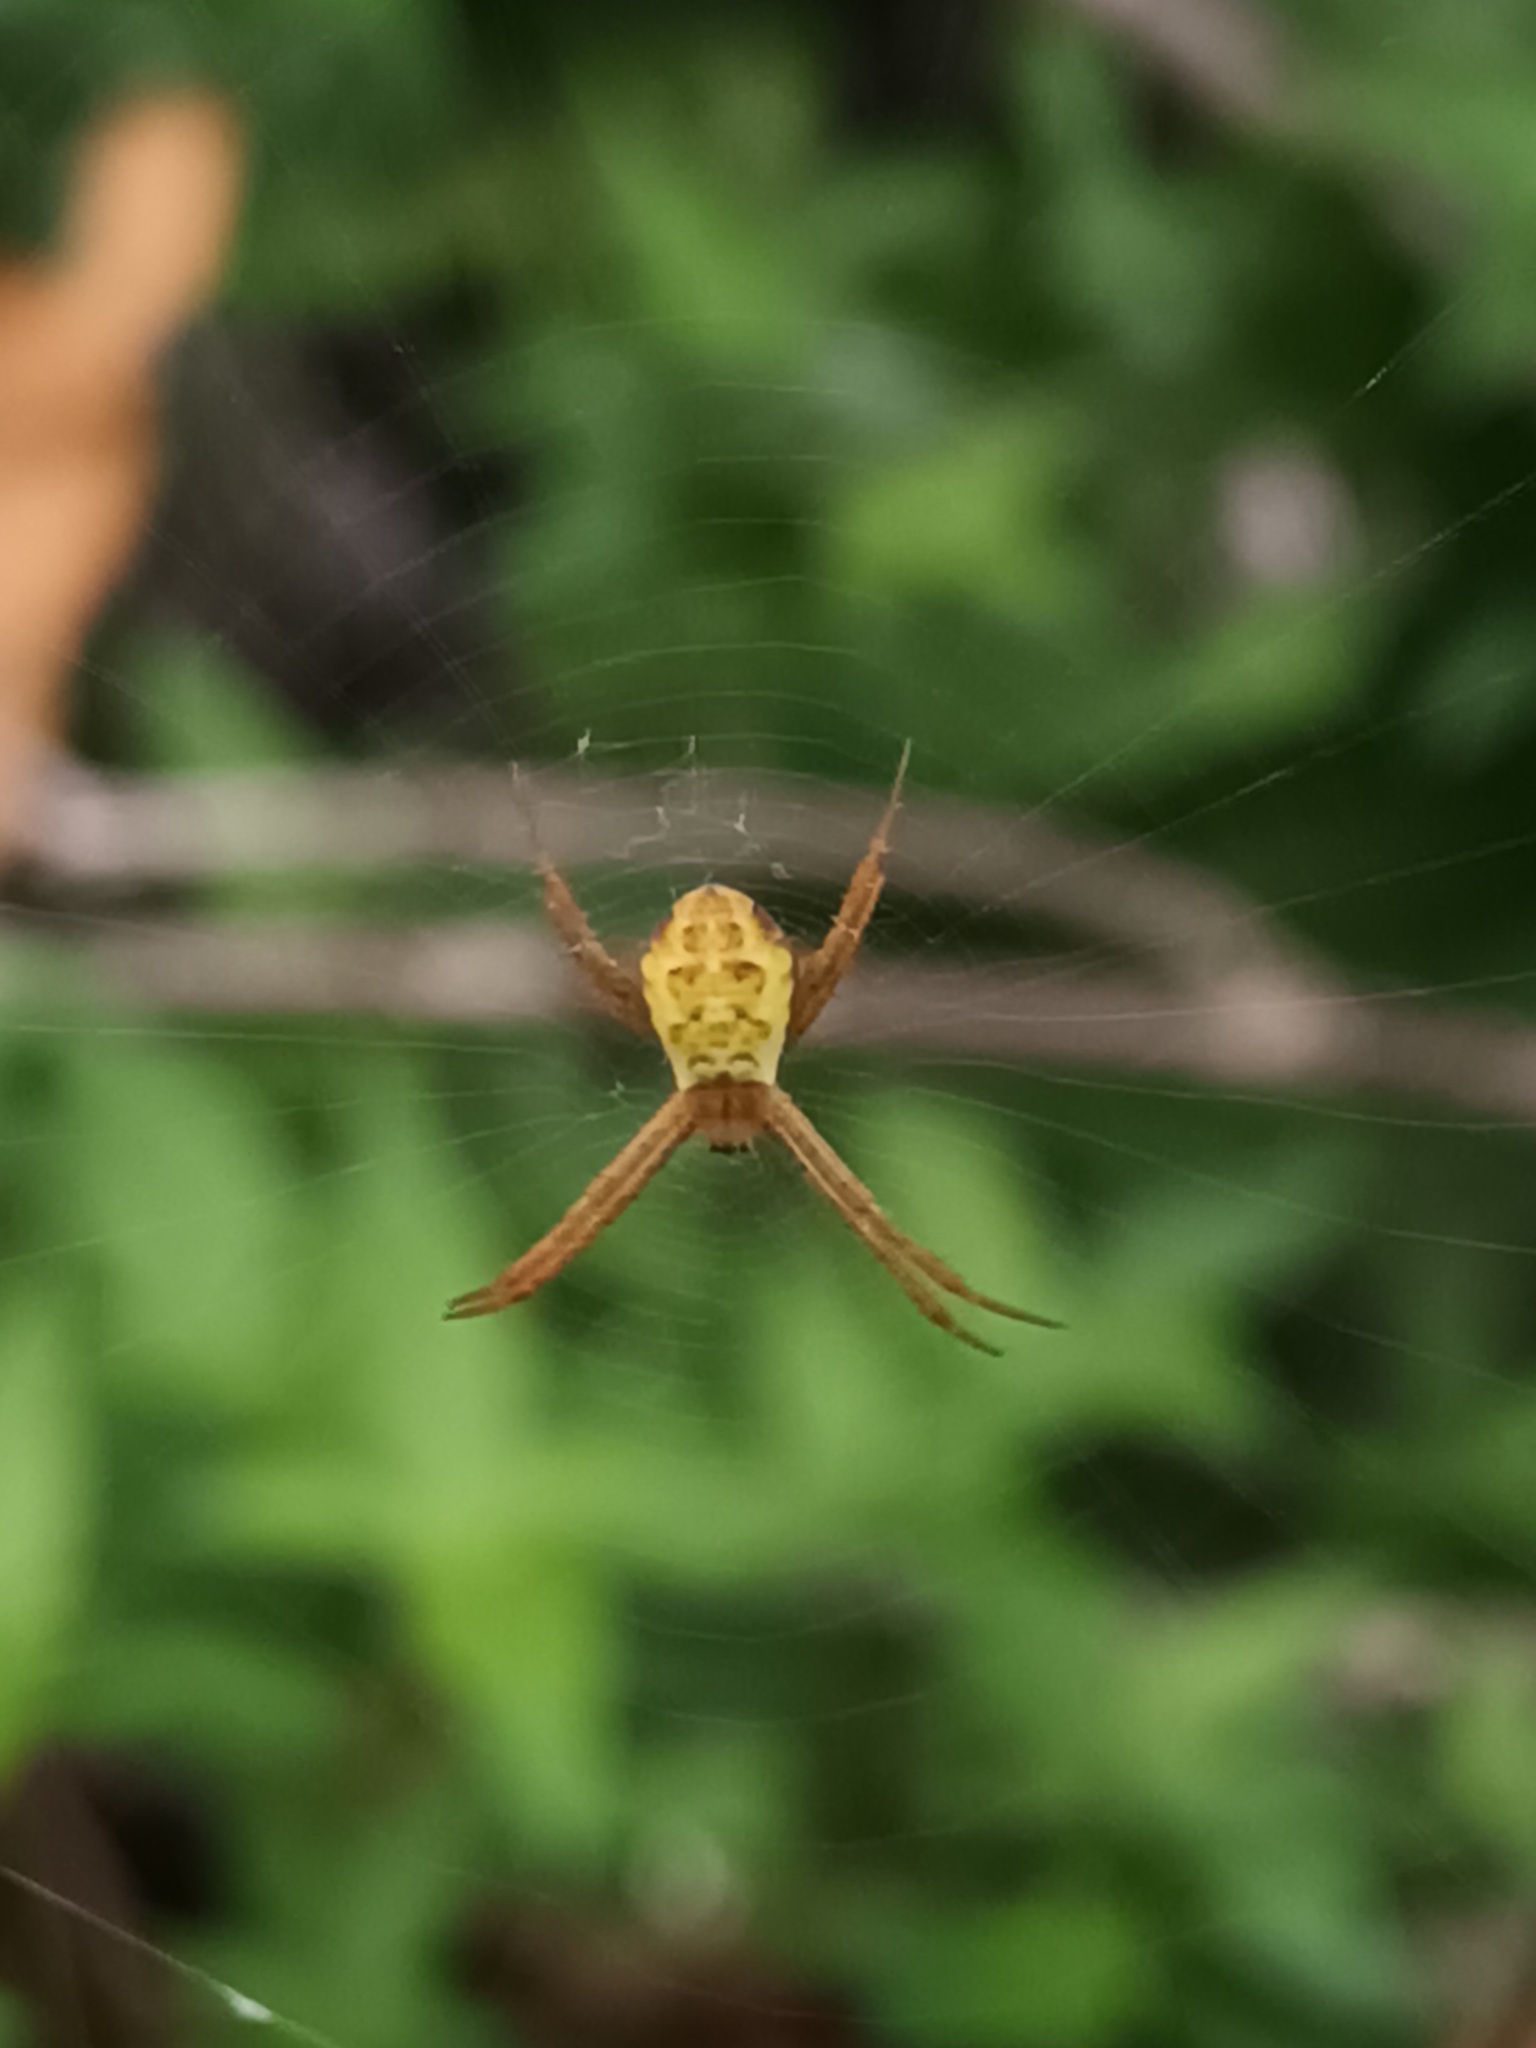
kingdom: Animalia
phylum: Arthropoda
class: Arachnida
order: Araneae
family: Araneidae
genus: Argiope
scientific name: Argiope appensa
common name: Garden spider
